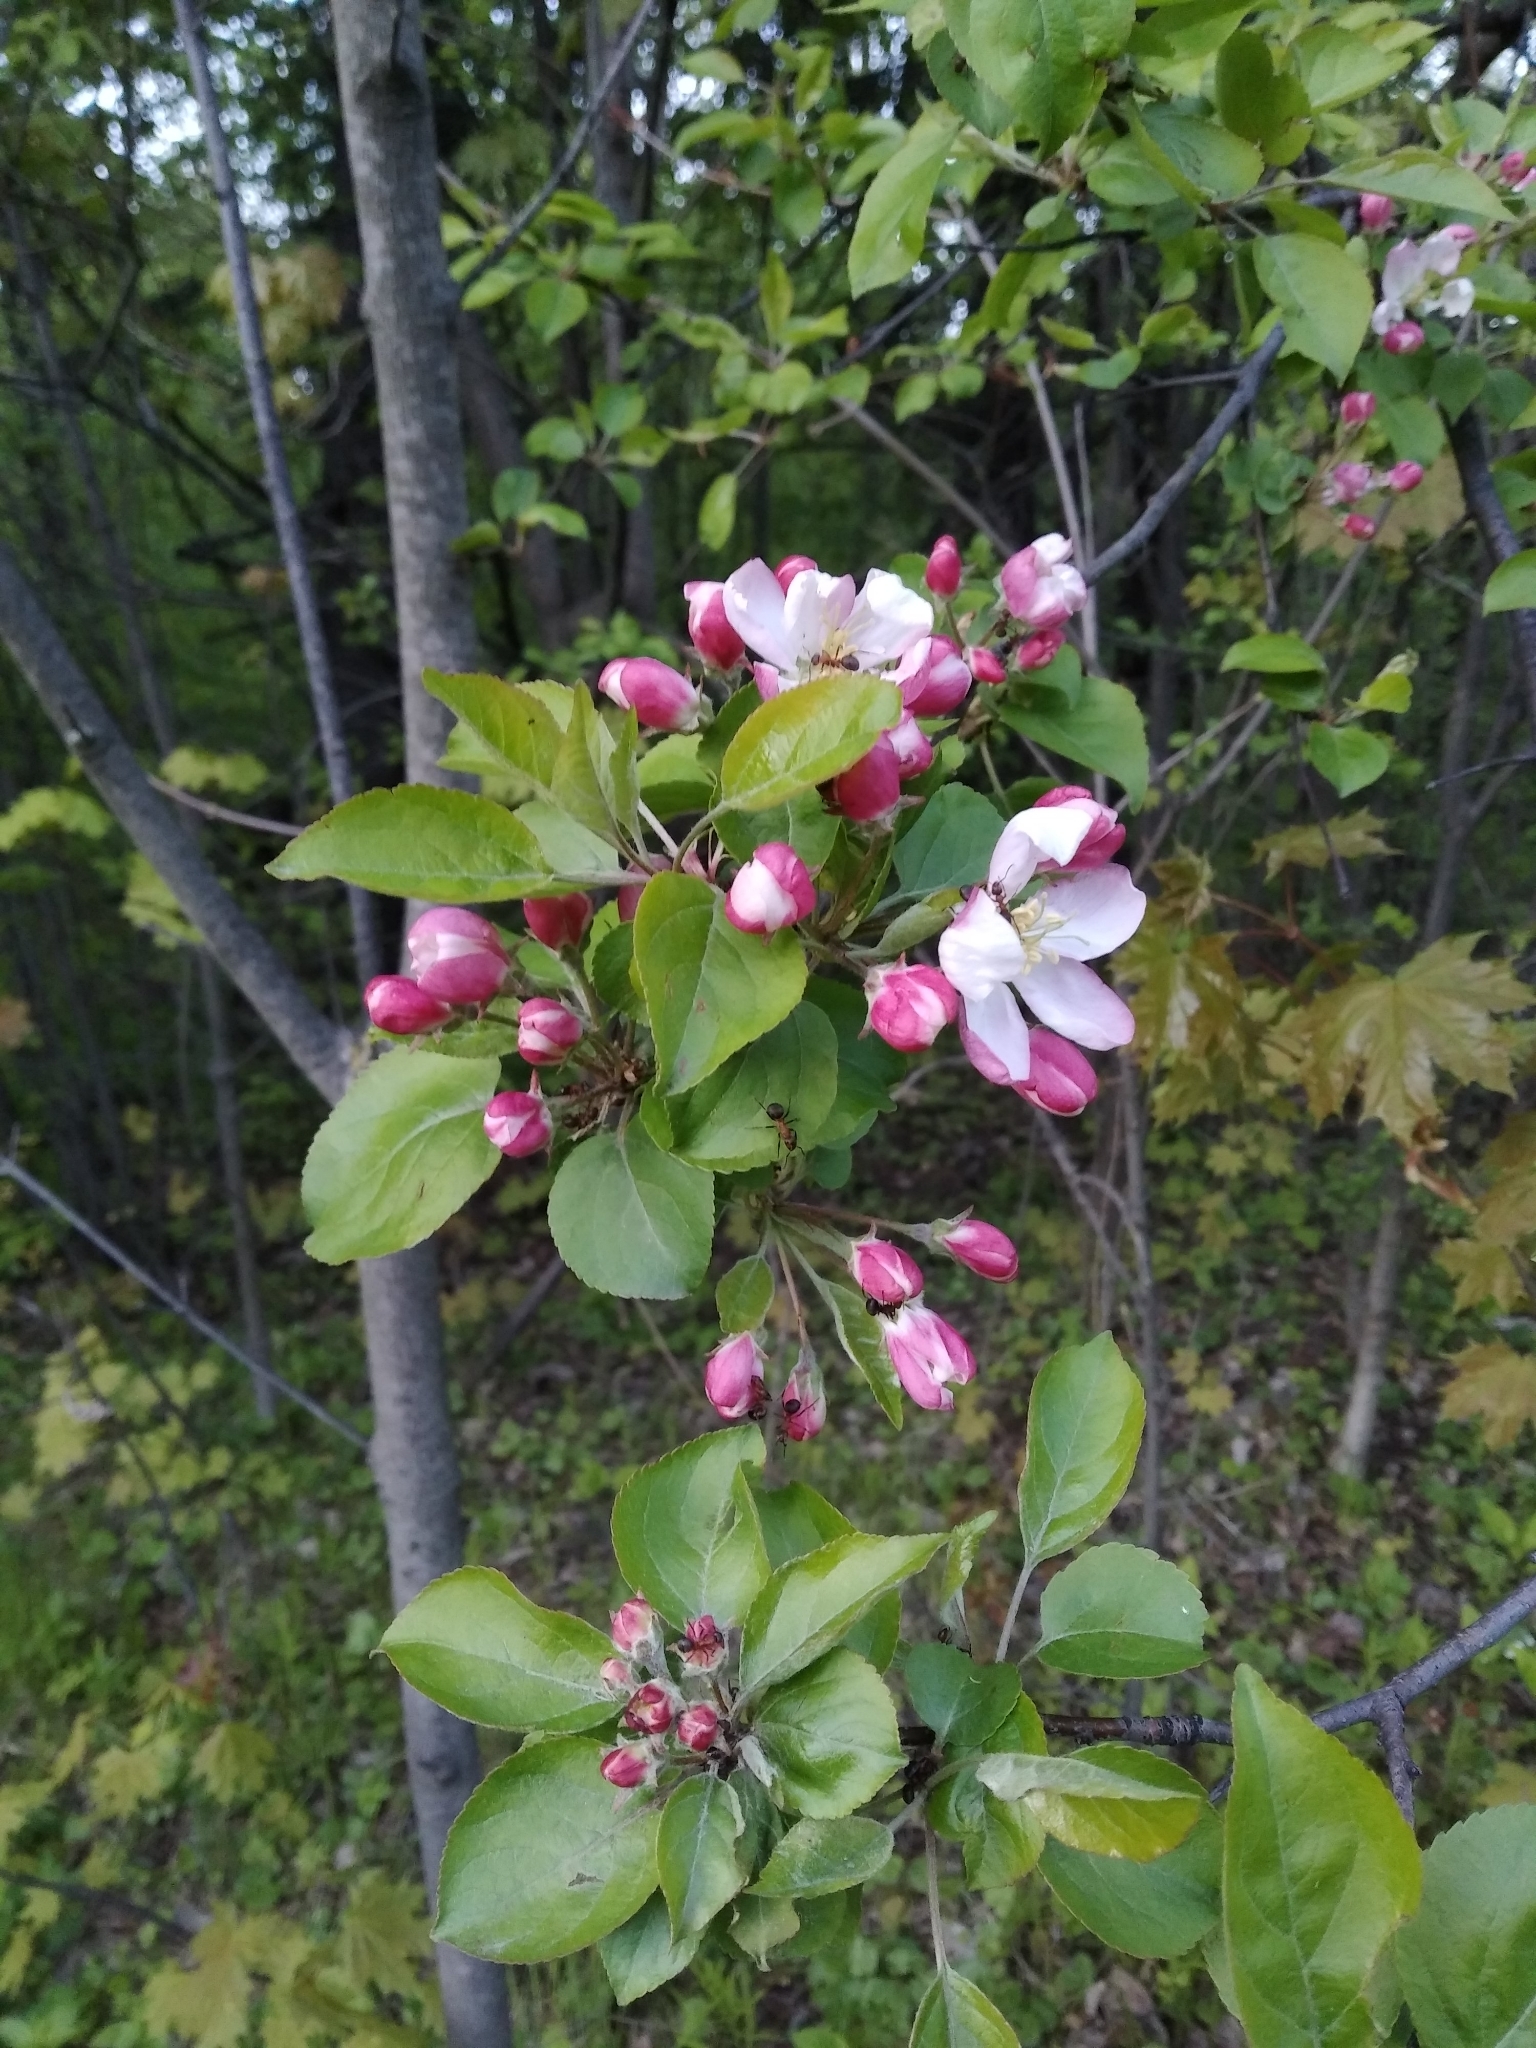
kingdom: Plantae
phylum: Tracheophyta
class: Magnoliopsida
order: Rosales
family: Rosaceae
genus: Malus
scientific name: Malus domestica
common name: Apple
